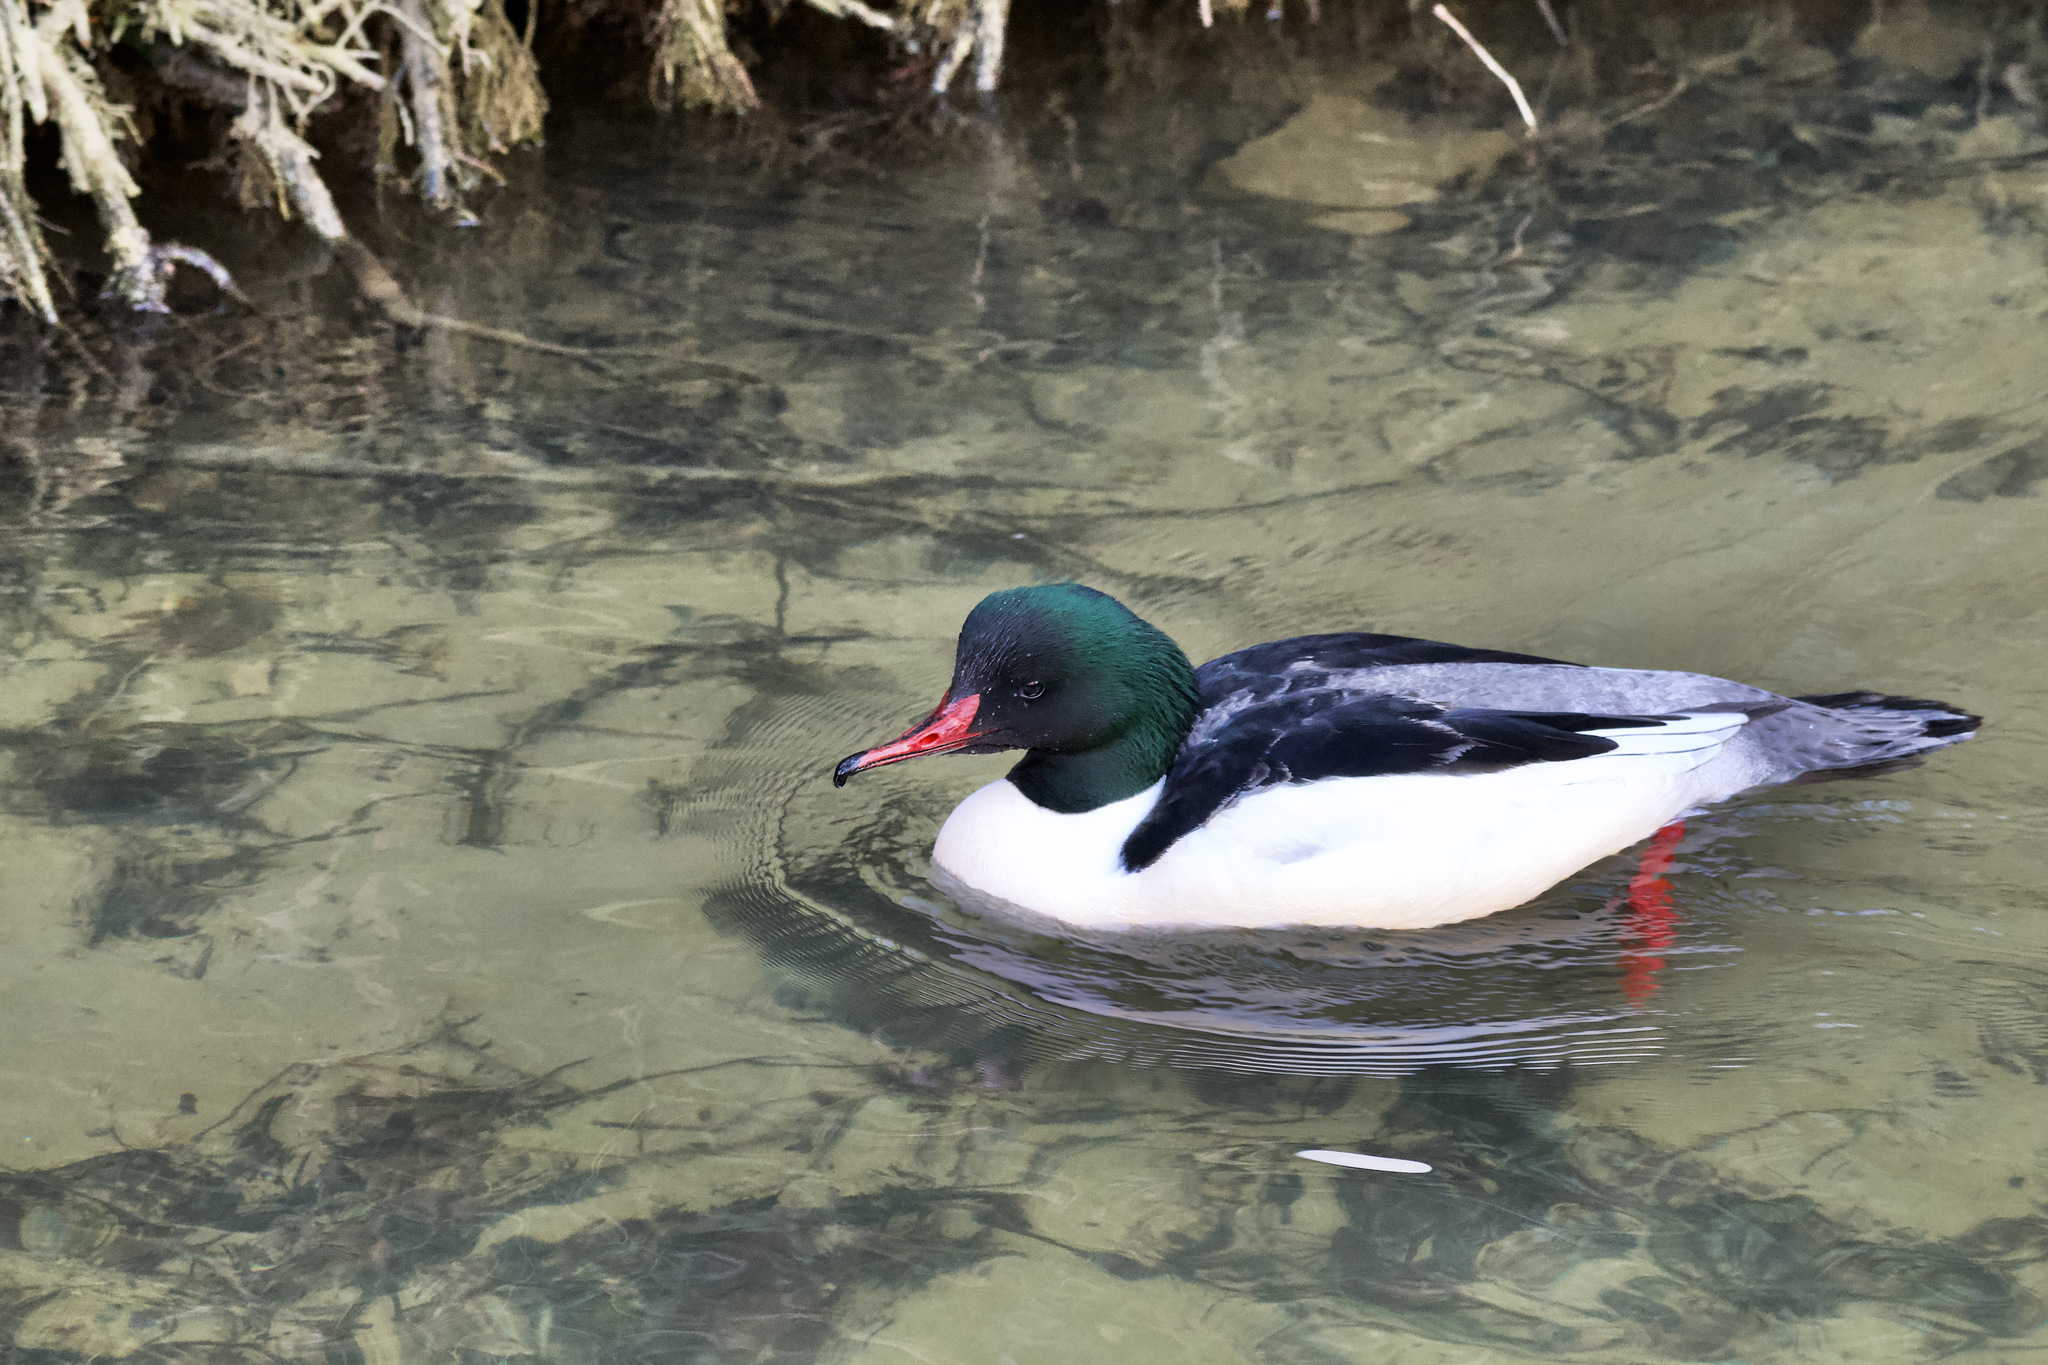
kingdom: Animalia
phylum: Chordata
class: Aves
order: Anseriformes
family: Anatidae
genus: Mergus
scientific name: Mergus merganser
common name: Common merganser
